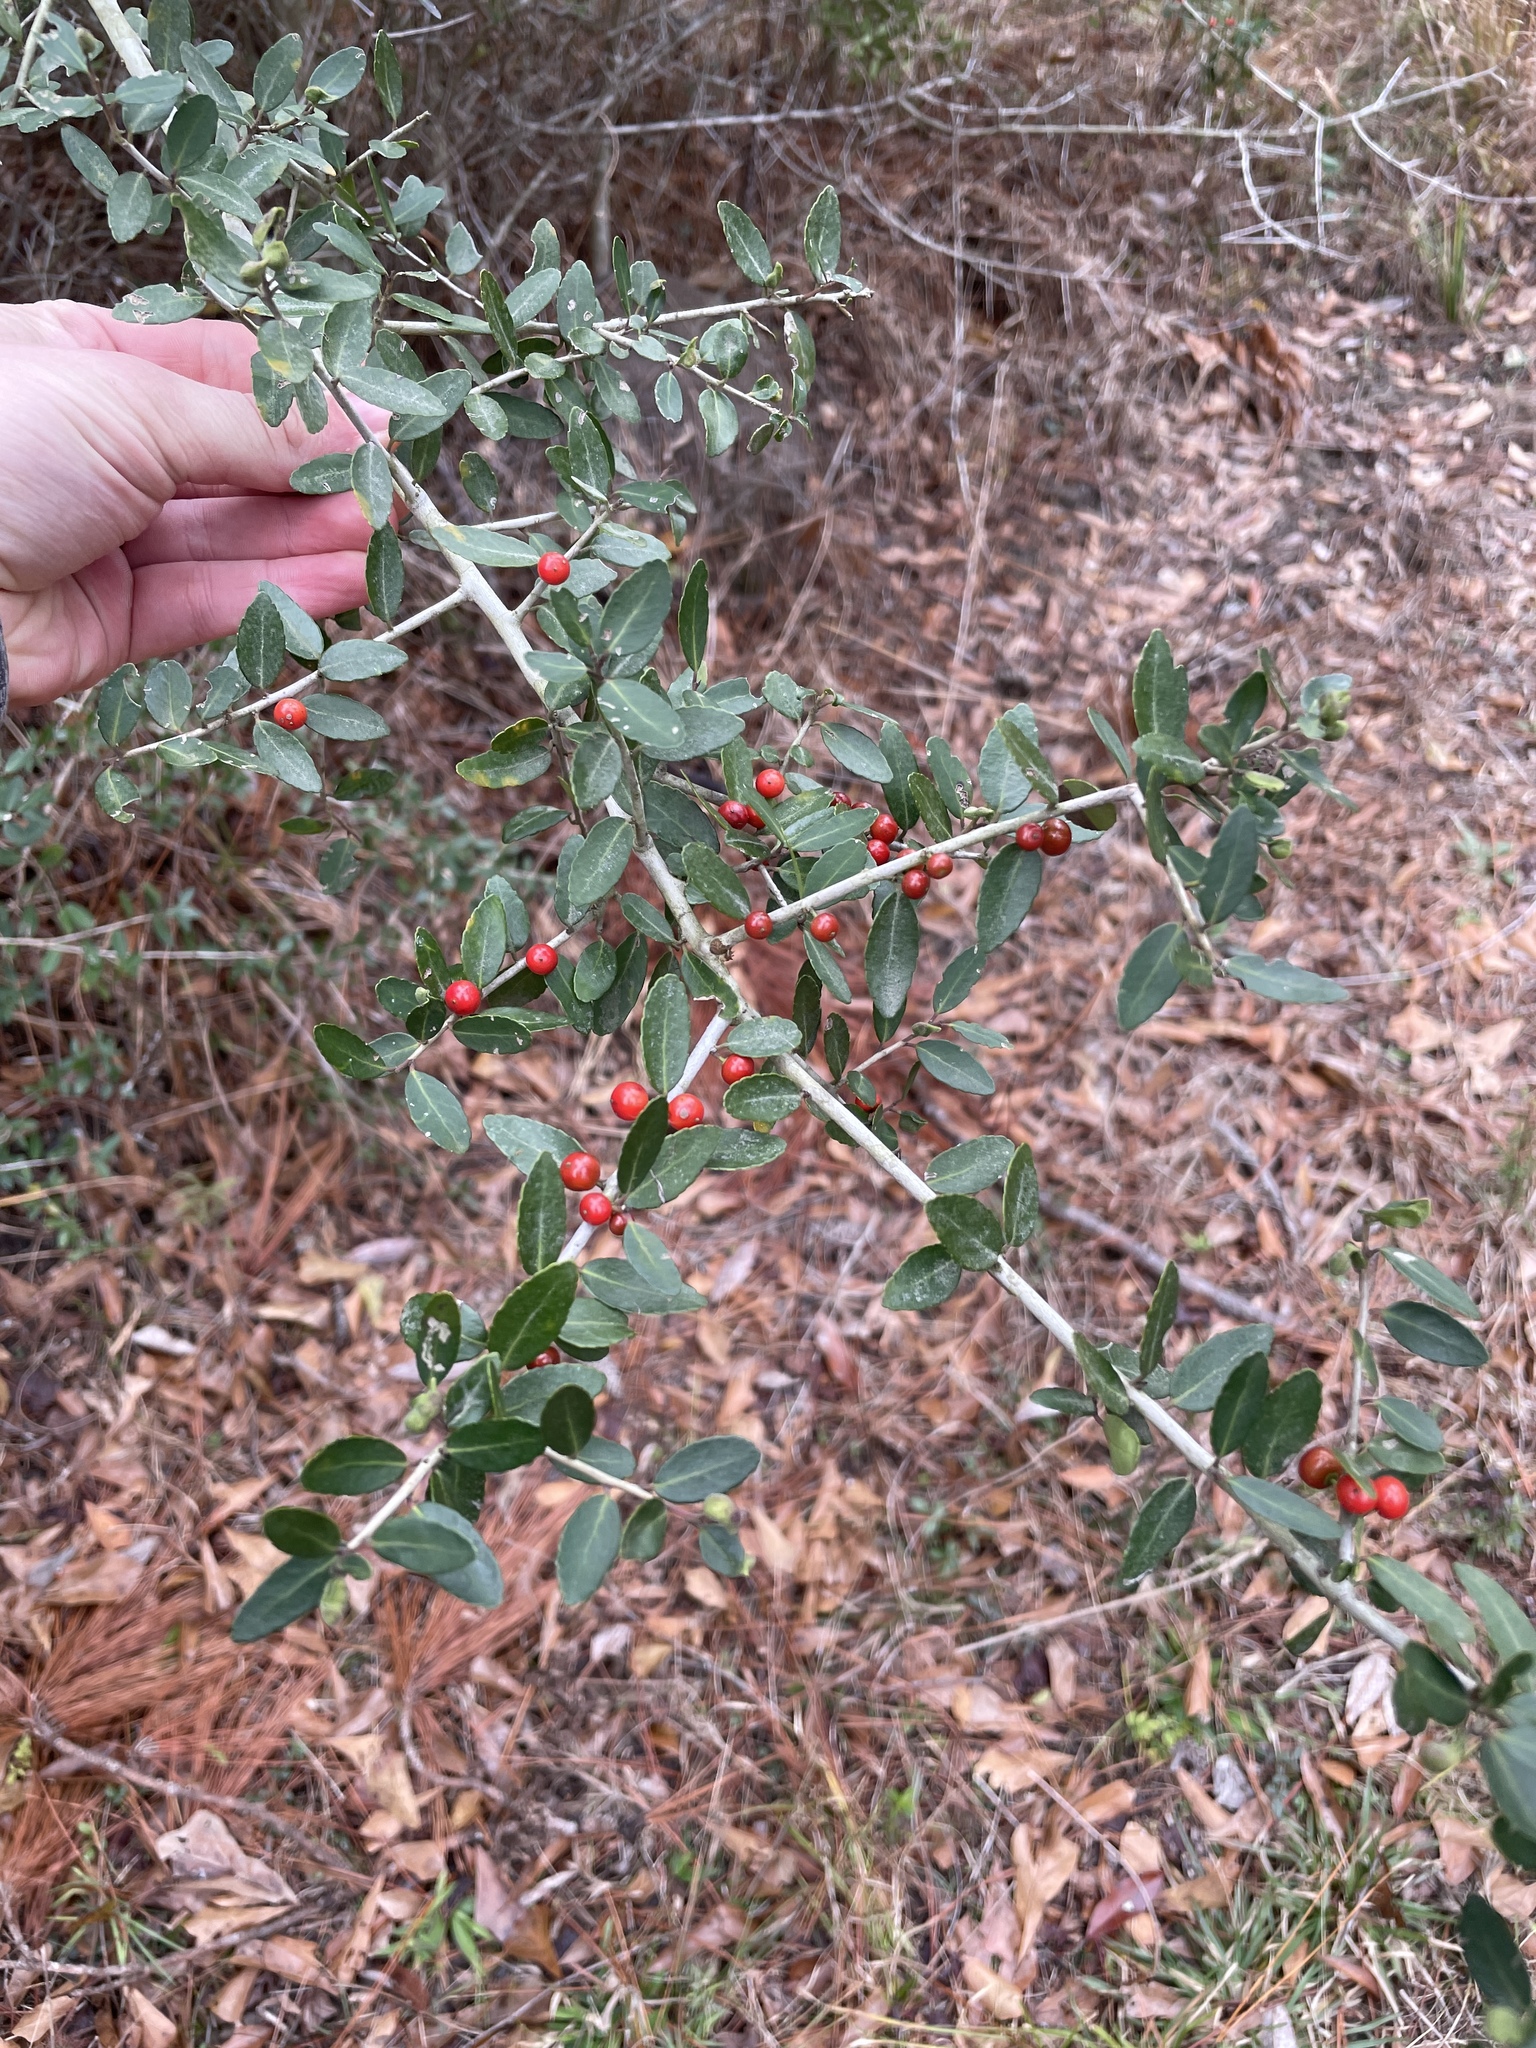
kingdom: Plantae
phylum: Tracheophyta
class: Magnoliopsida
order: Aquifoliales
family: Aquifoliaceae
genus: Ilex
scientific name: Ilex vomitoria
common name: Yaupon holly
